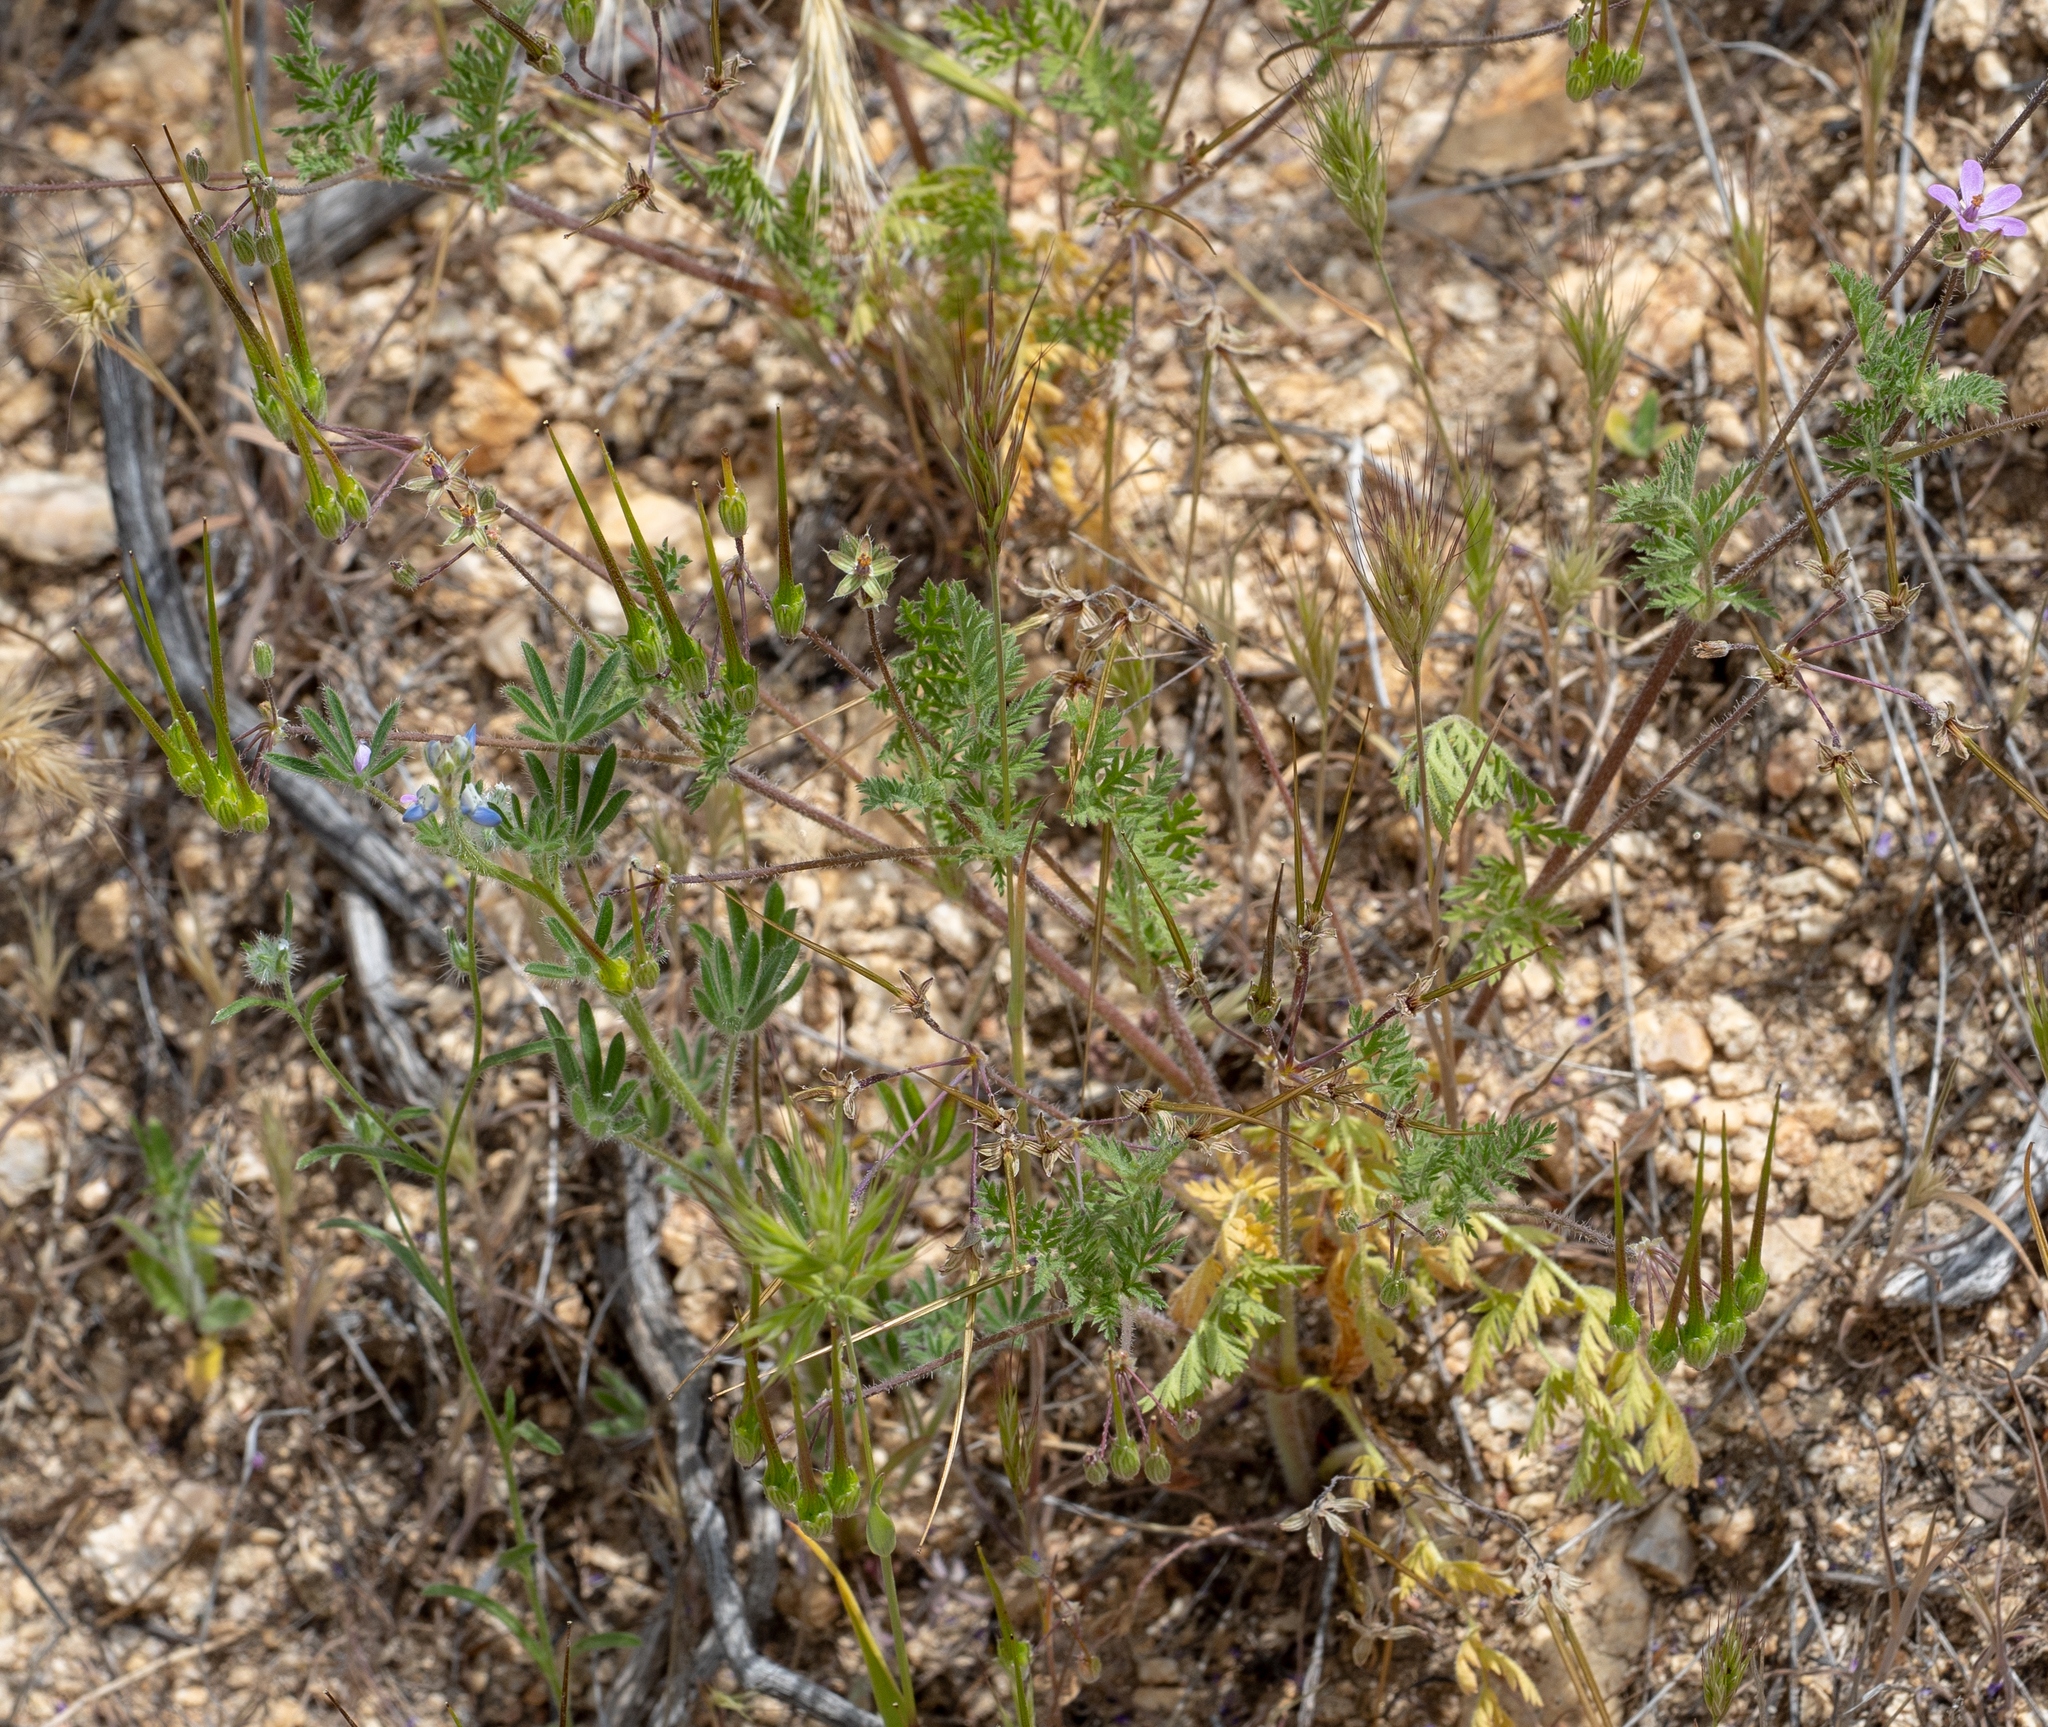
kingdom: Plantae
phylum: Tracheophyta
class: Magnoliopsida
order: Geraniales
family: Geraniaceae
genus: Erodium
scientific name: Erodium cicutarium
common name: Common stork's-bill
